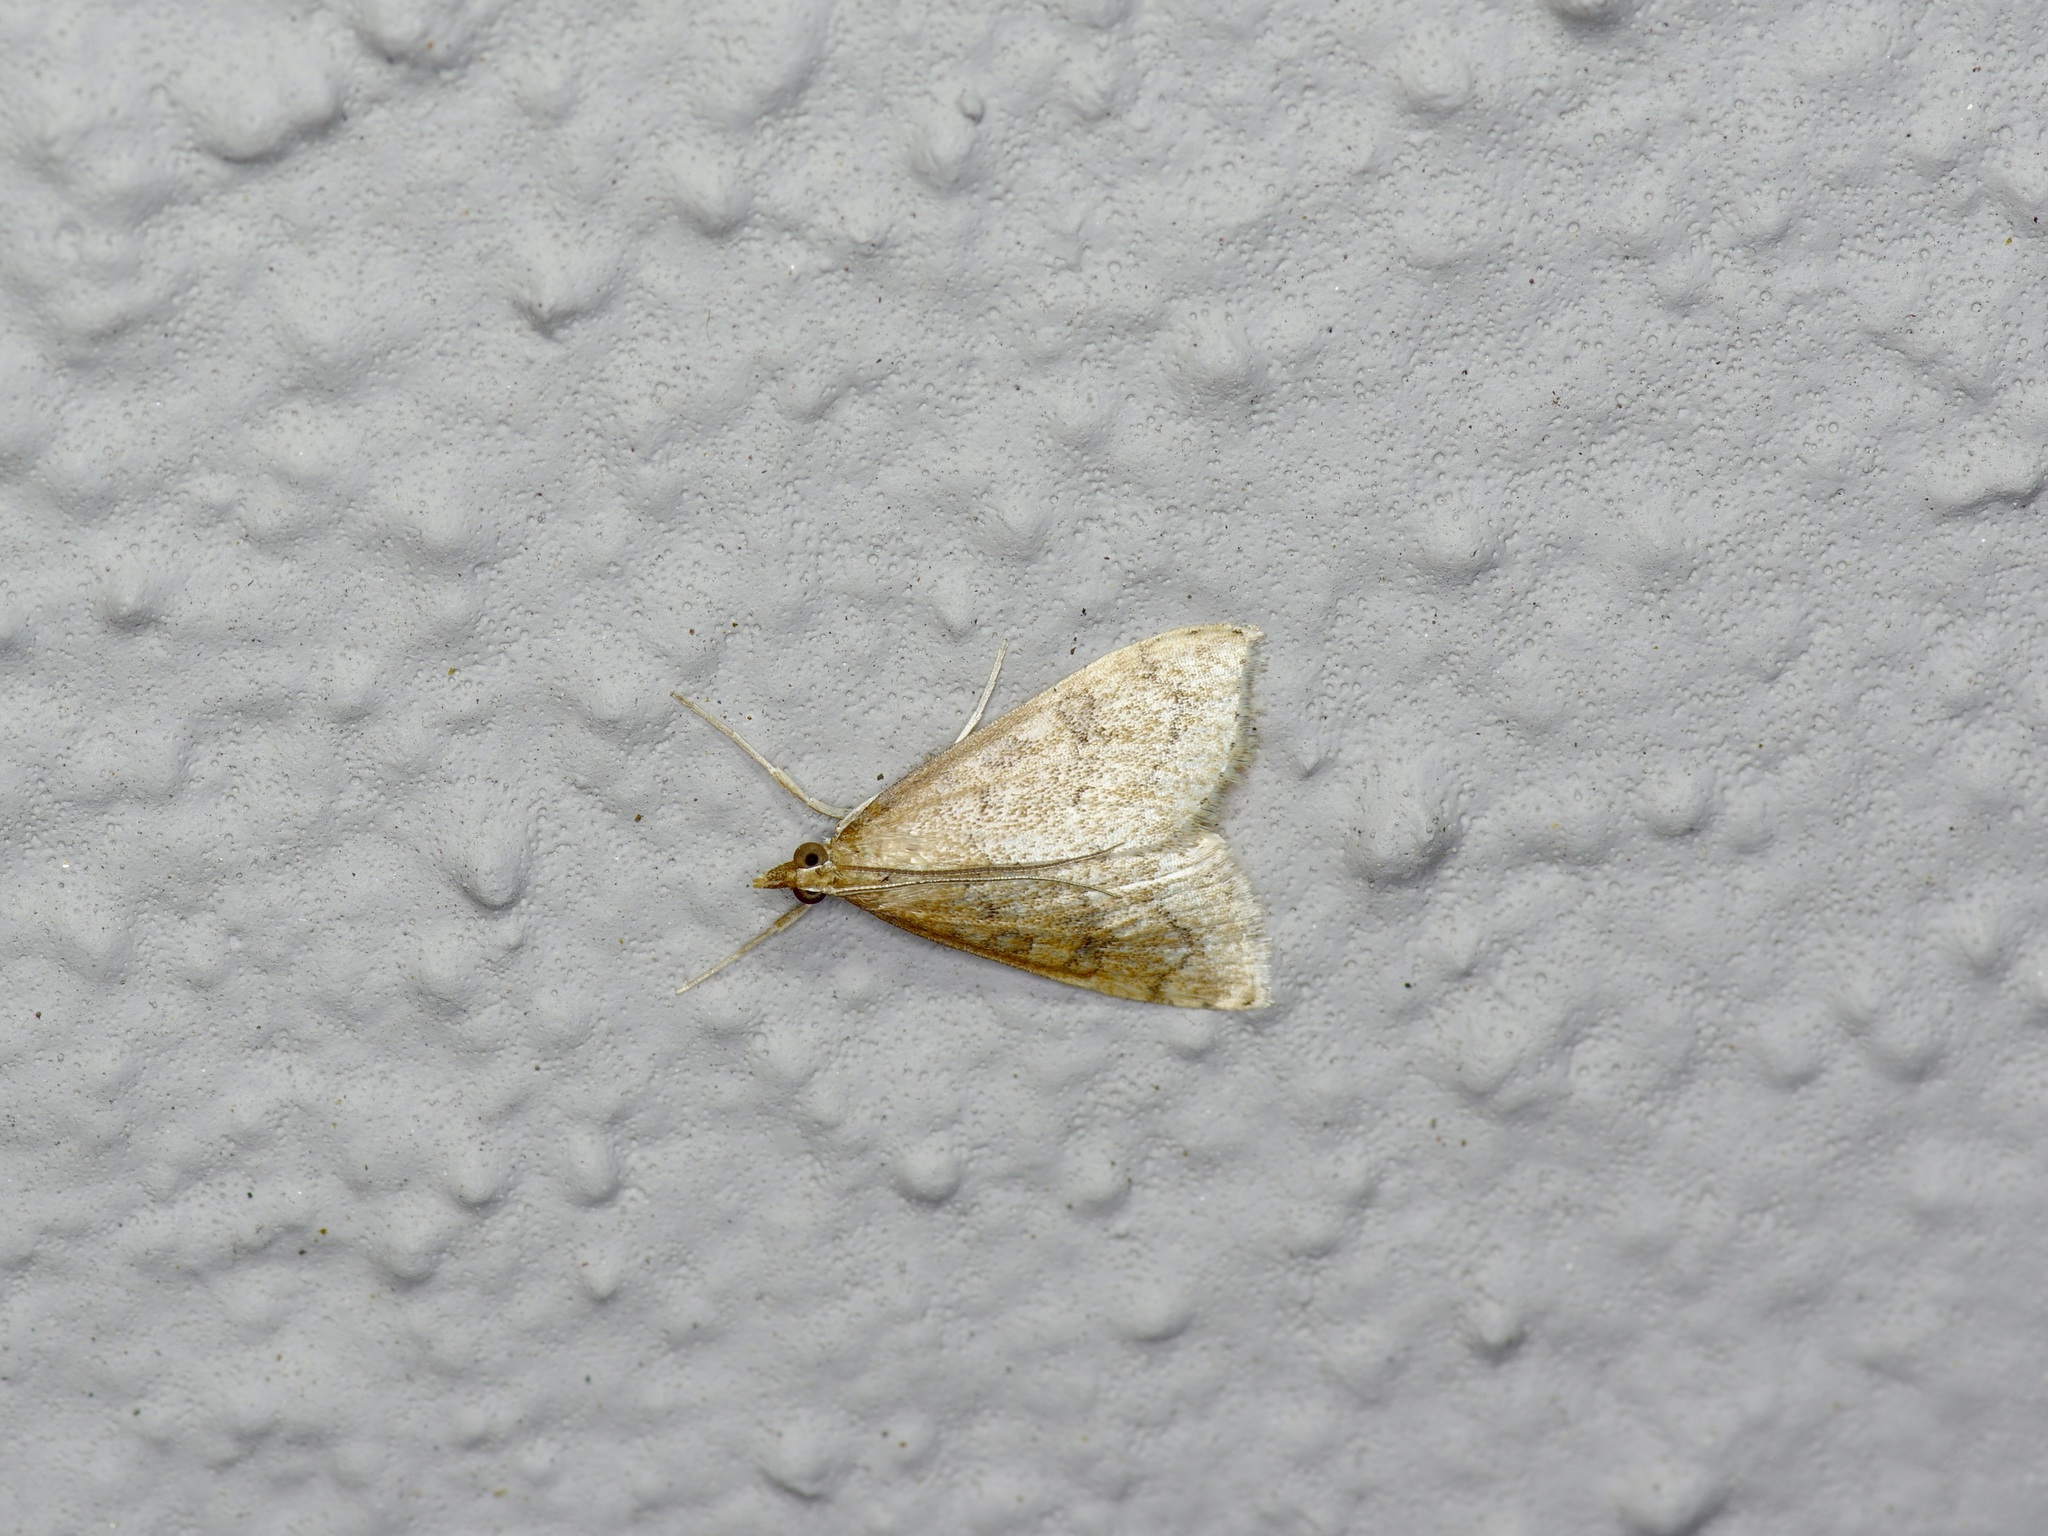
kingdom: Animalia
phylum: Arthropoda
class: Insecta
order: Lepidoptera
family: Crambidae
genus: Udea
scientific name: Udea rubigalis
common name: Celery leaftier moth
